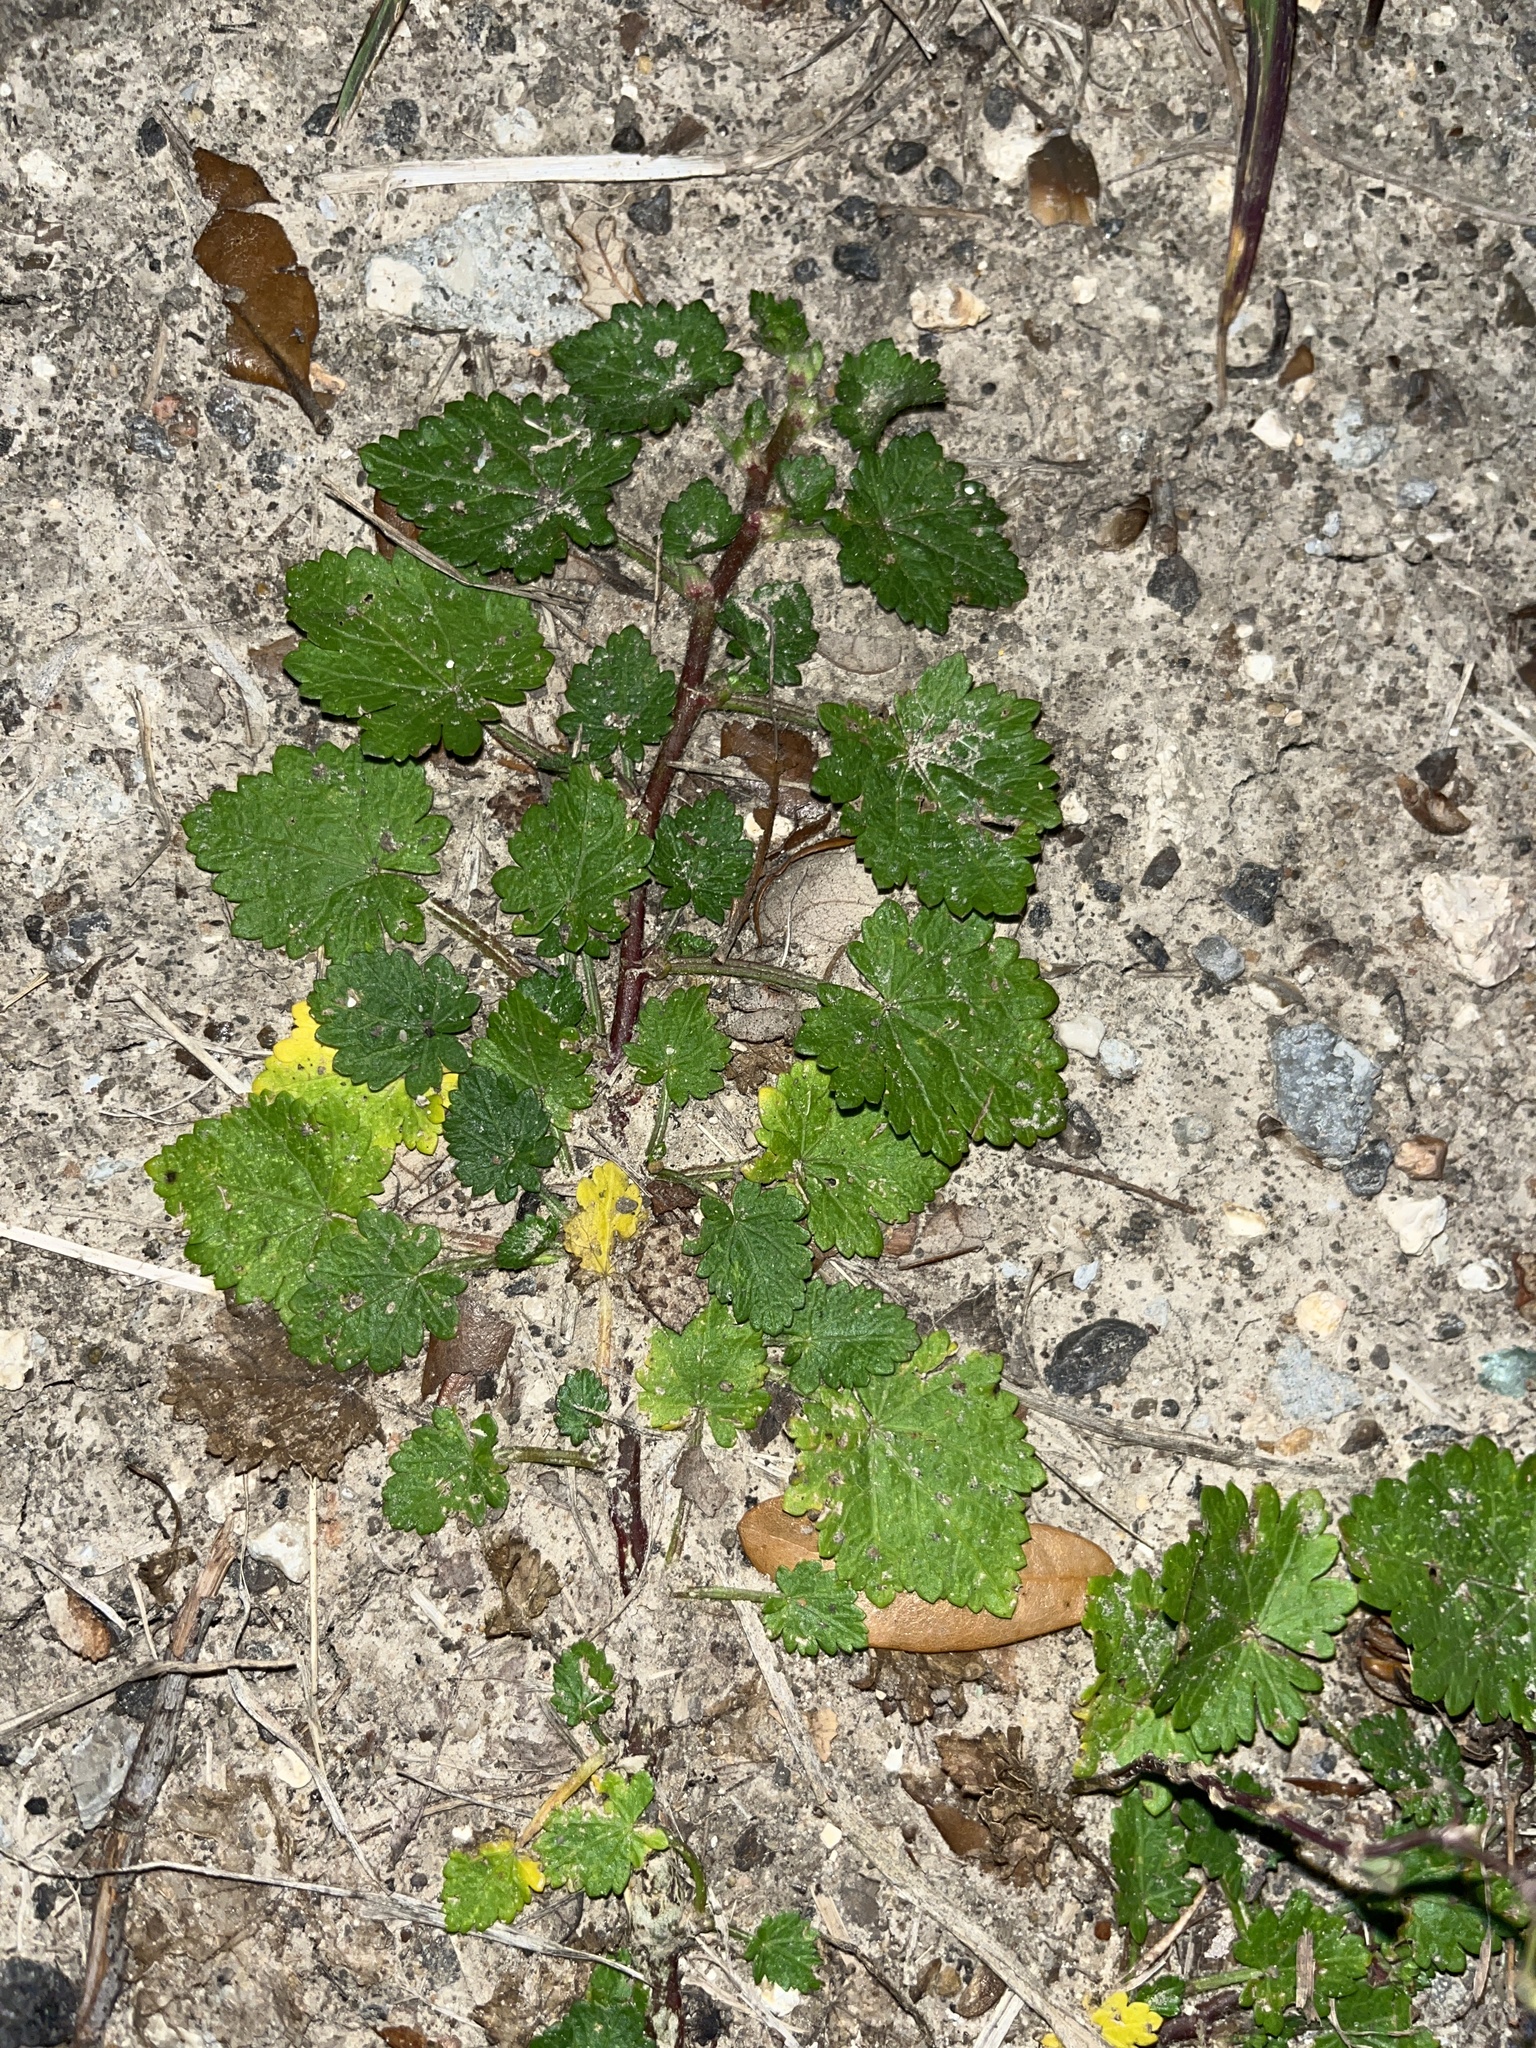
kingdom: Plantae
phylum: Tracheophyta
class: Magnoliopsida
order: Malvales
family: Malvaceae
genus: Modiola
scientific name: Modiola caroliniana
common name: Carolina bristlemallow
